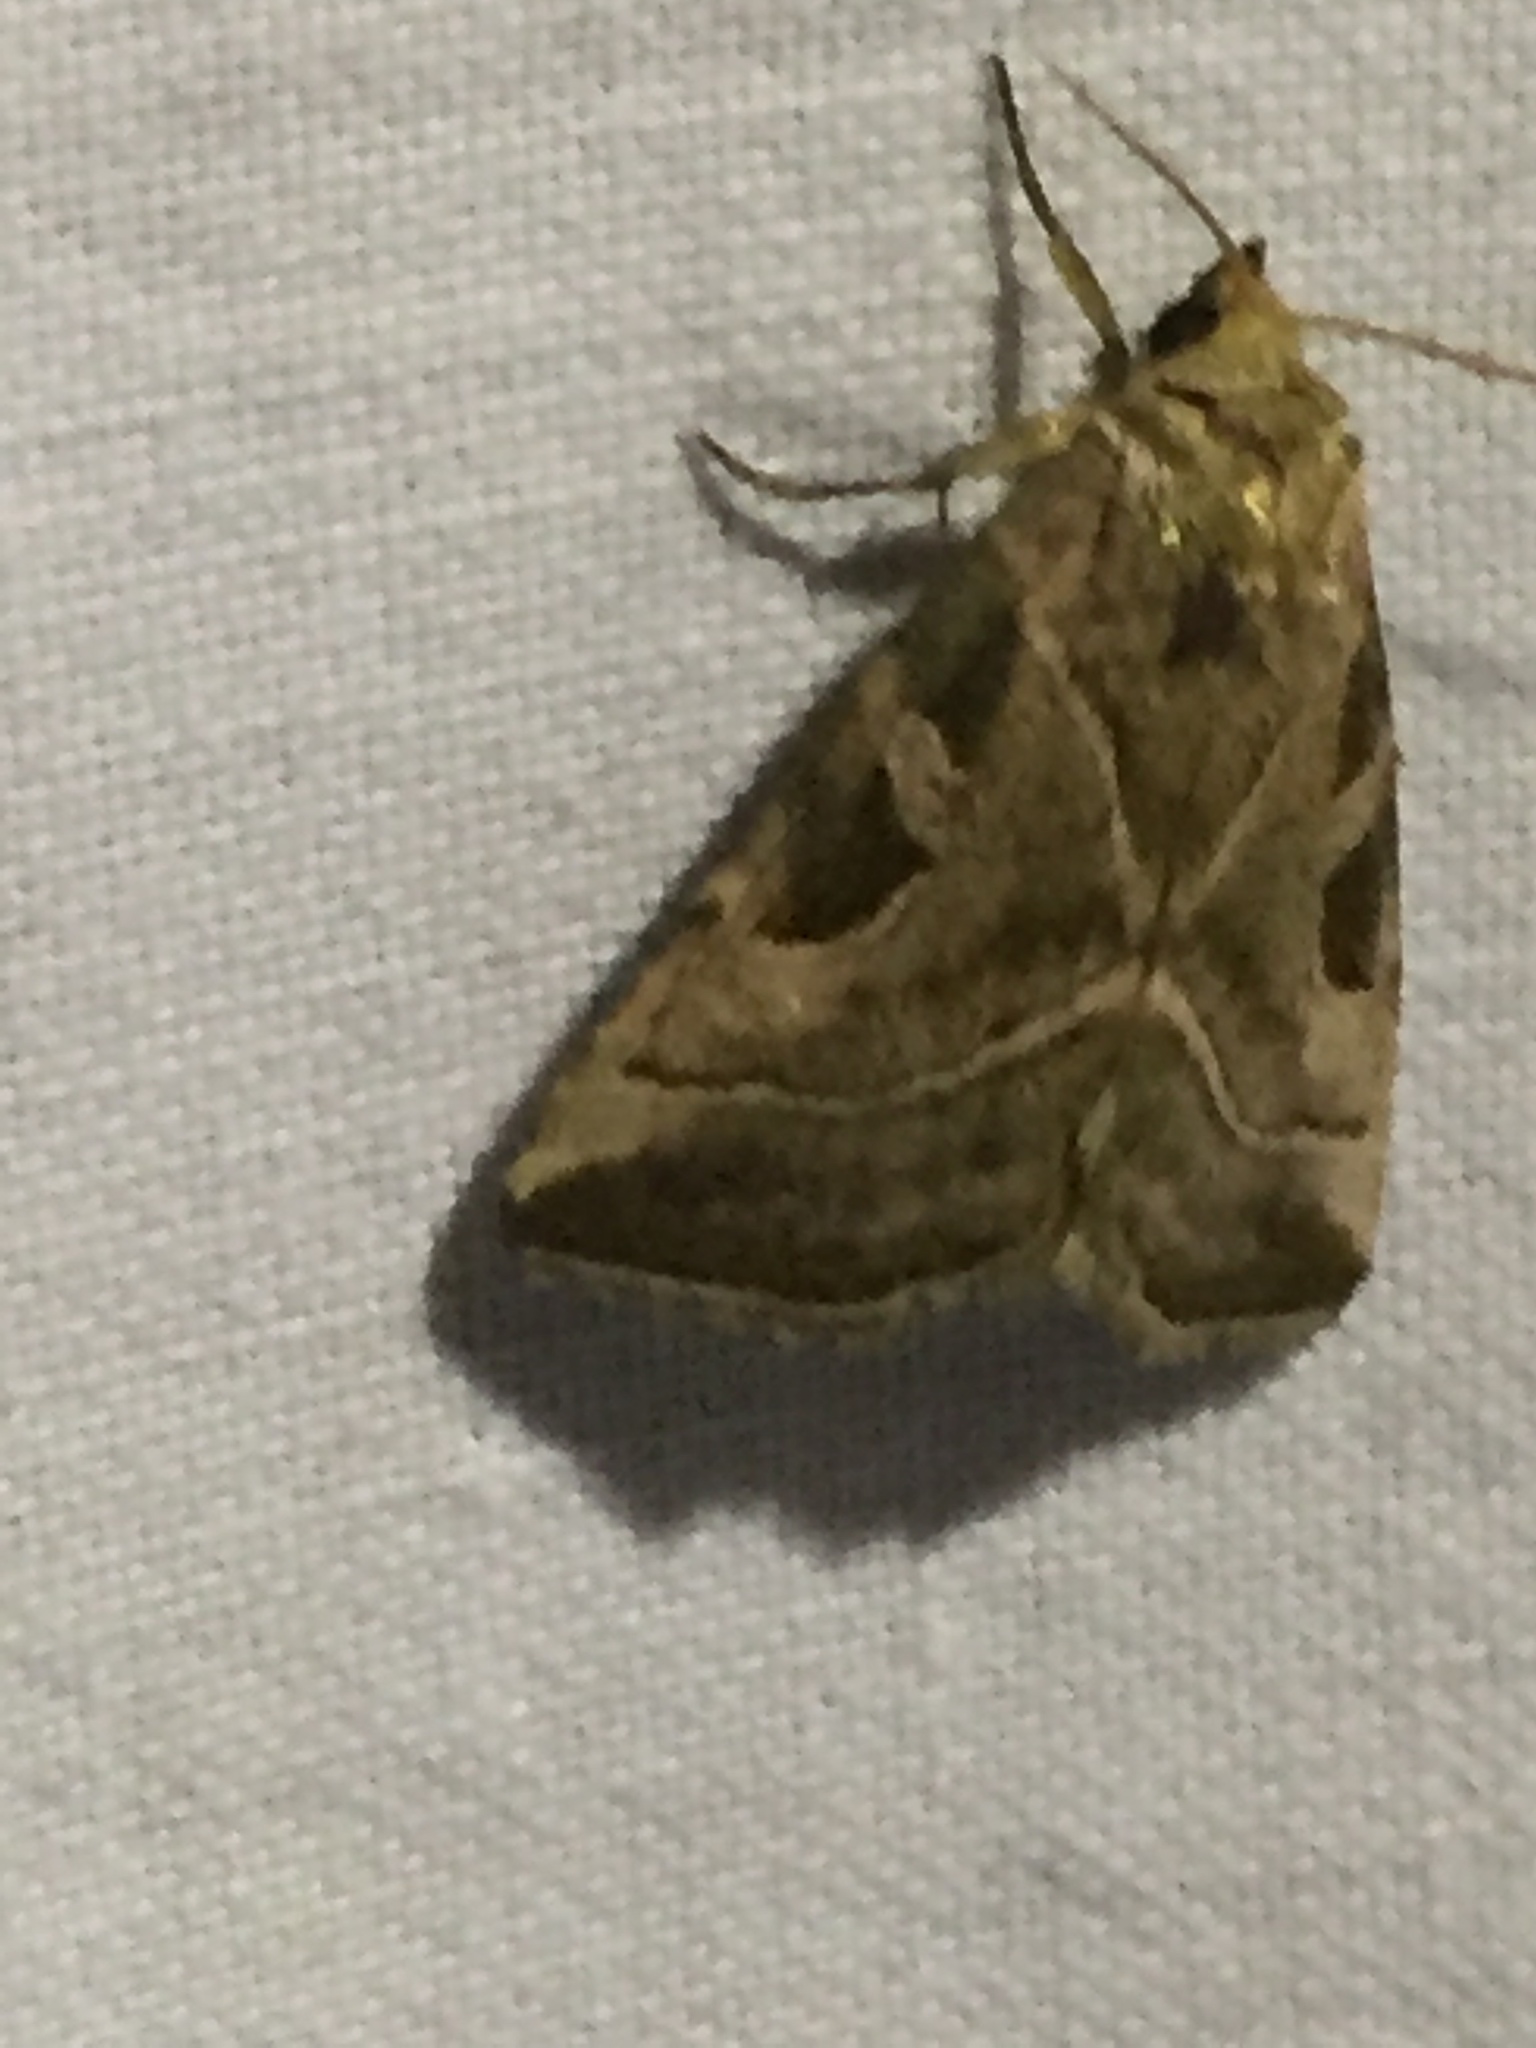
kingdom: Animalia
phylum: Arthropoda
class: Insecta
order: Lepidoptera
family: Noctuidae
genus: Eucarta
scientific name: Eucarta virgo
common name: Silvery gem
